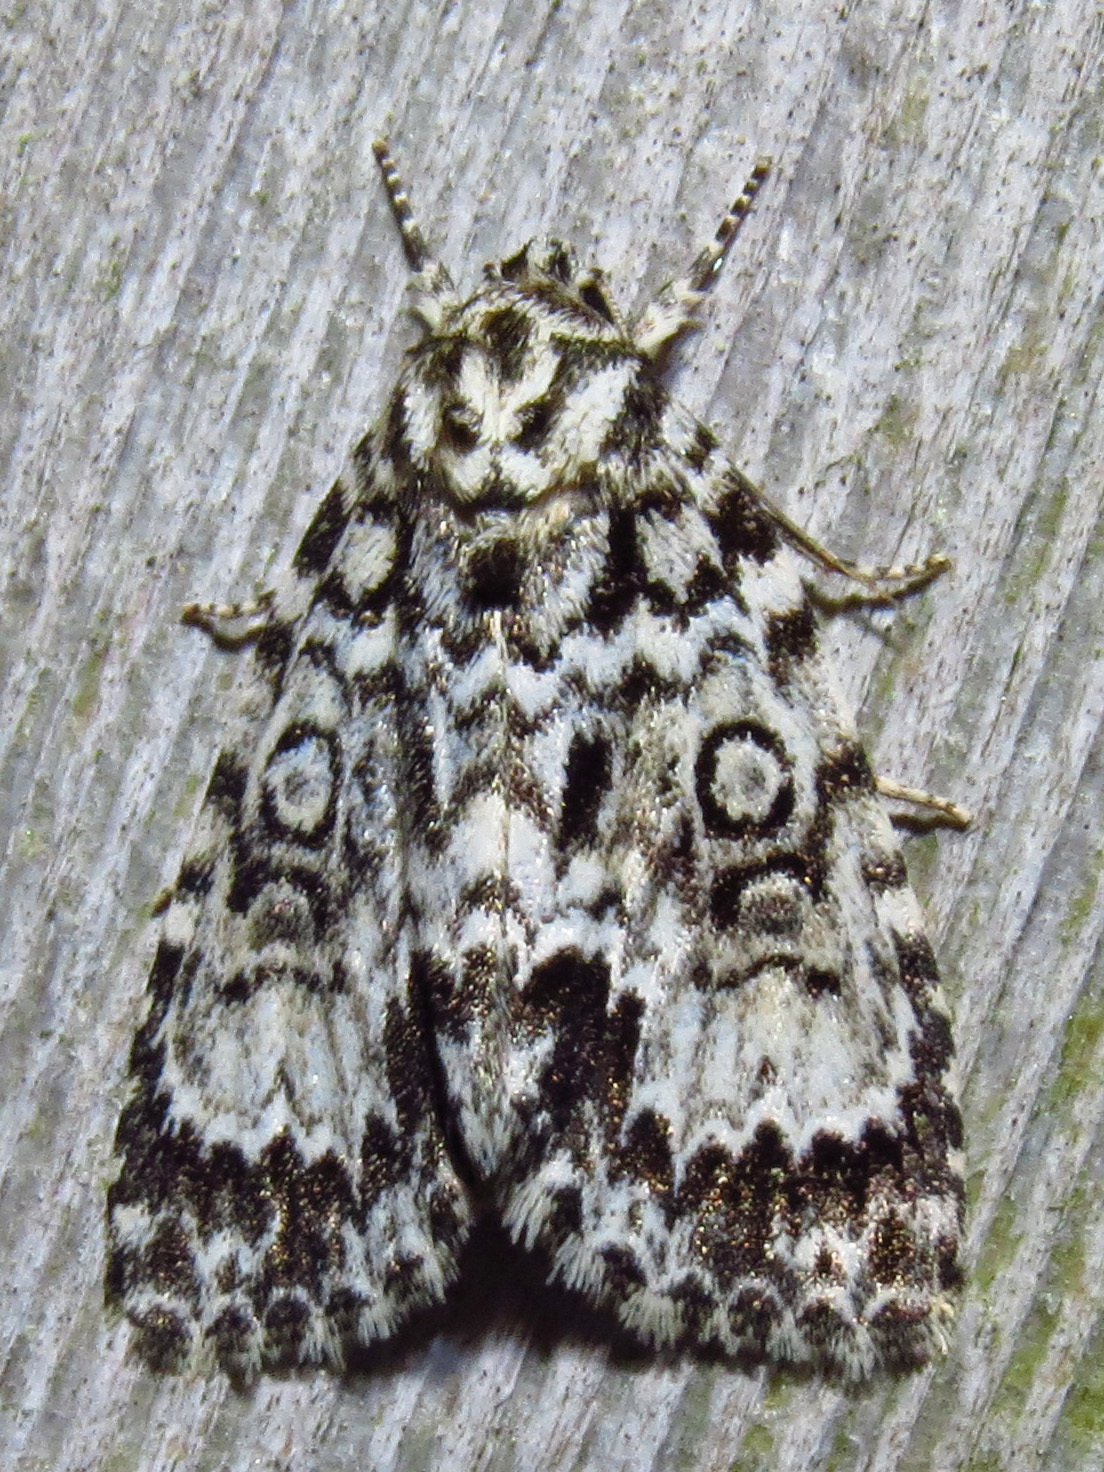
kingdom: Animalia
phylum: Arthropoda
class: Insecta
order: Lepidoptera
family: Noctuidae
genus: Acronicta
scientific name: Acronicta fragilis
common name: Fragile dagger
